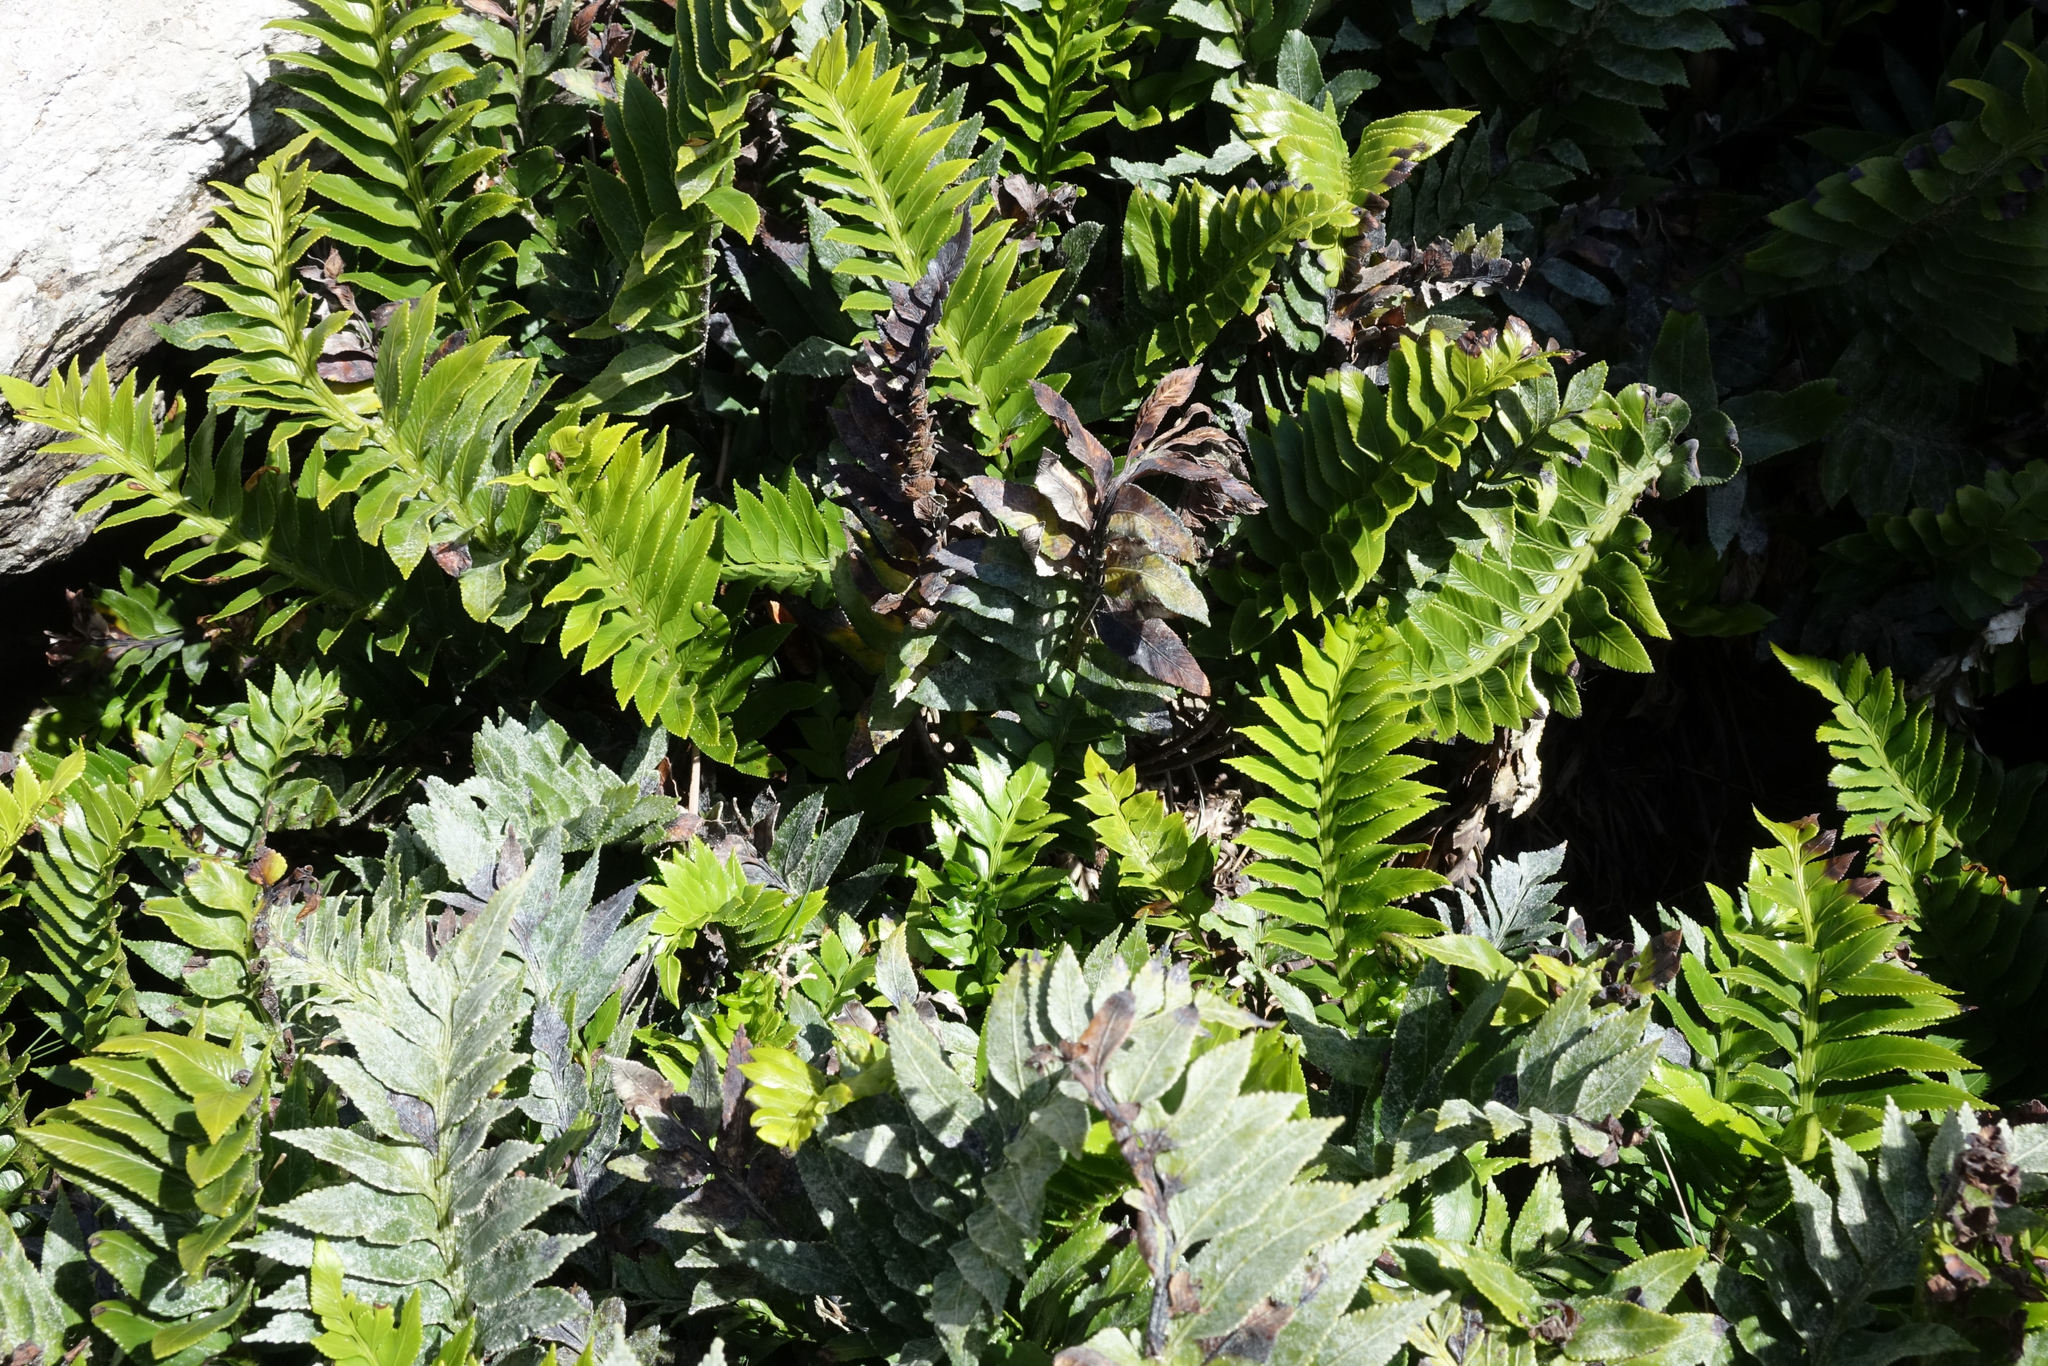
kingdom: Plantae
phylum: Tracheophyta
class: Polypodiopsida
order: Polypodiales
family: Aspleniaceae
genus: Asplenium
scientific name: Asplenium obtusatum
